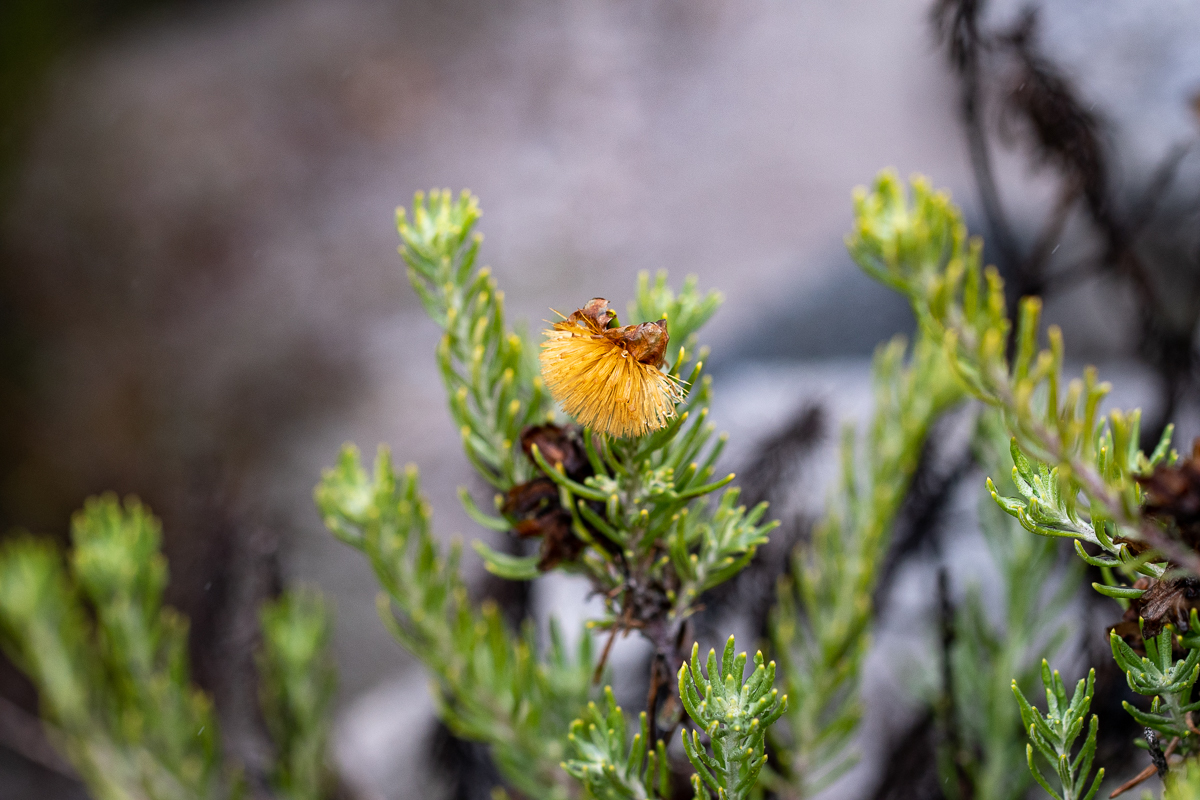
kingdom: Plantae
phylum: Tracheophyta
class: Magnoliopsida
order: Asterales
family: Asteraceae
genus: Heterolepis
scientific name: Heterolepis aliena
